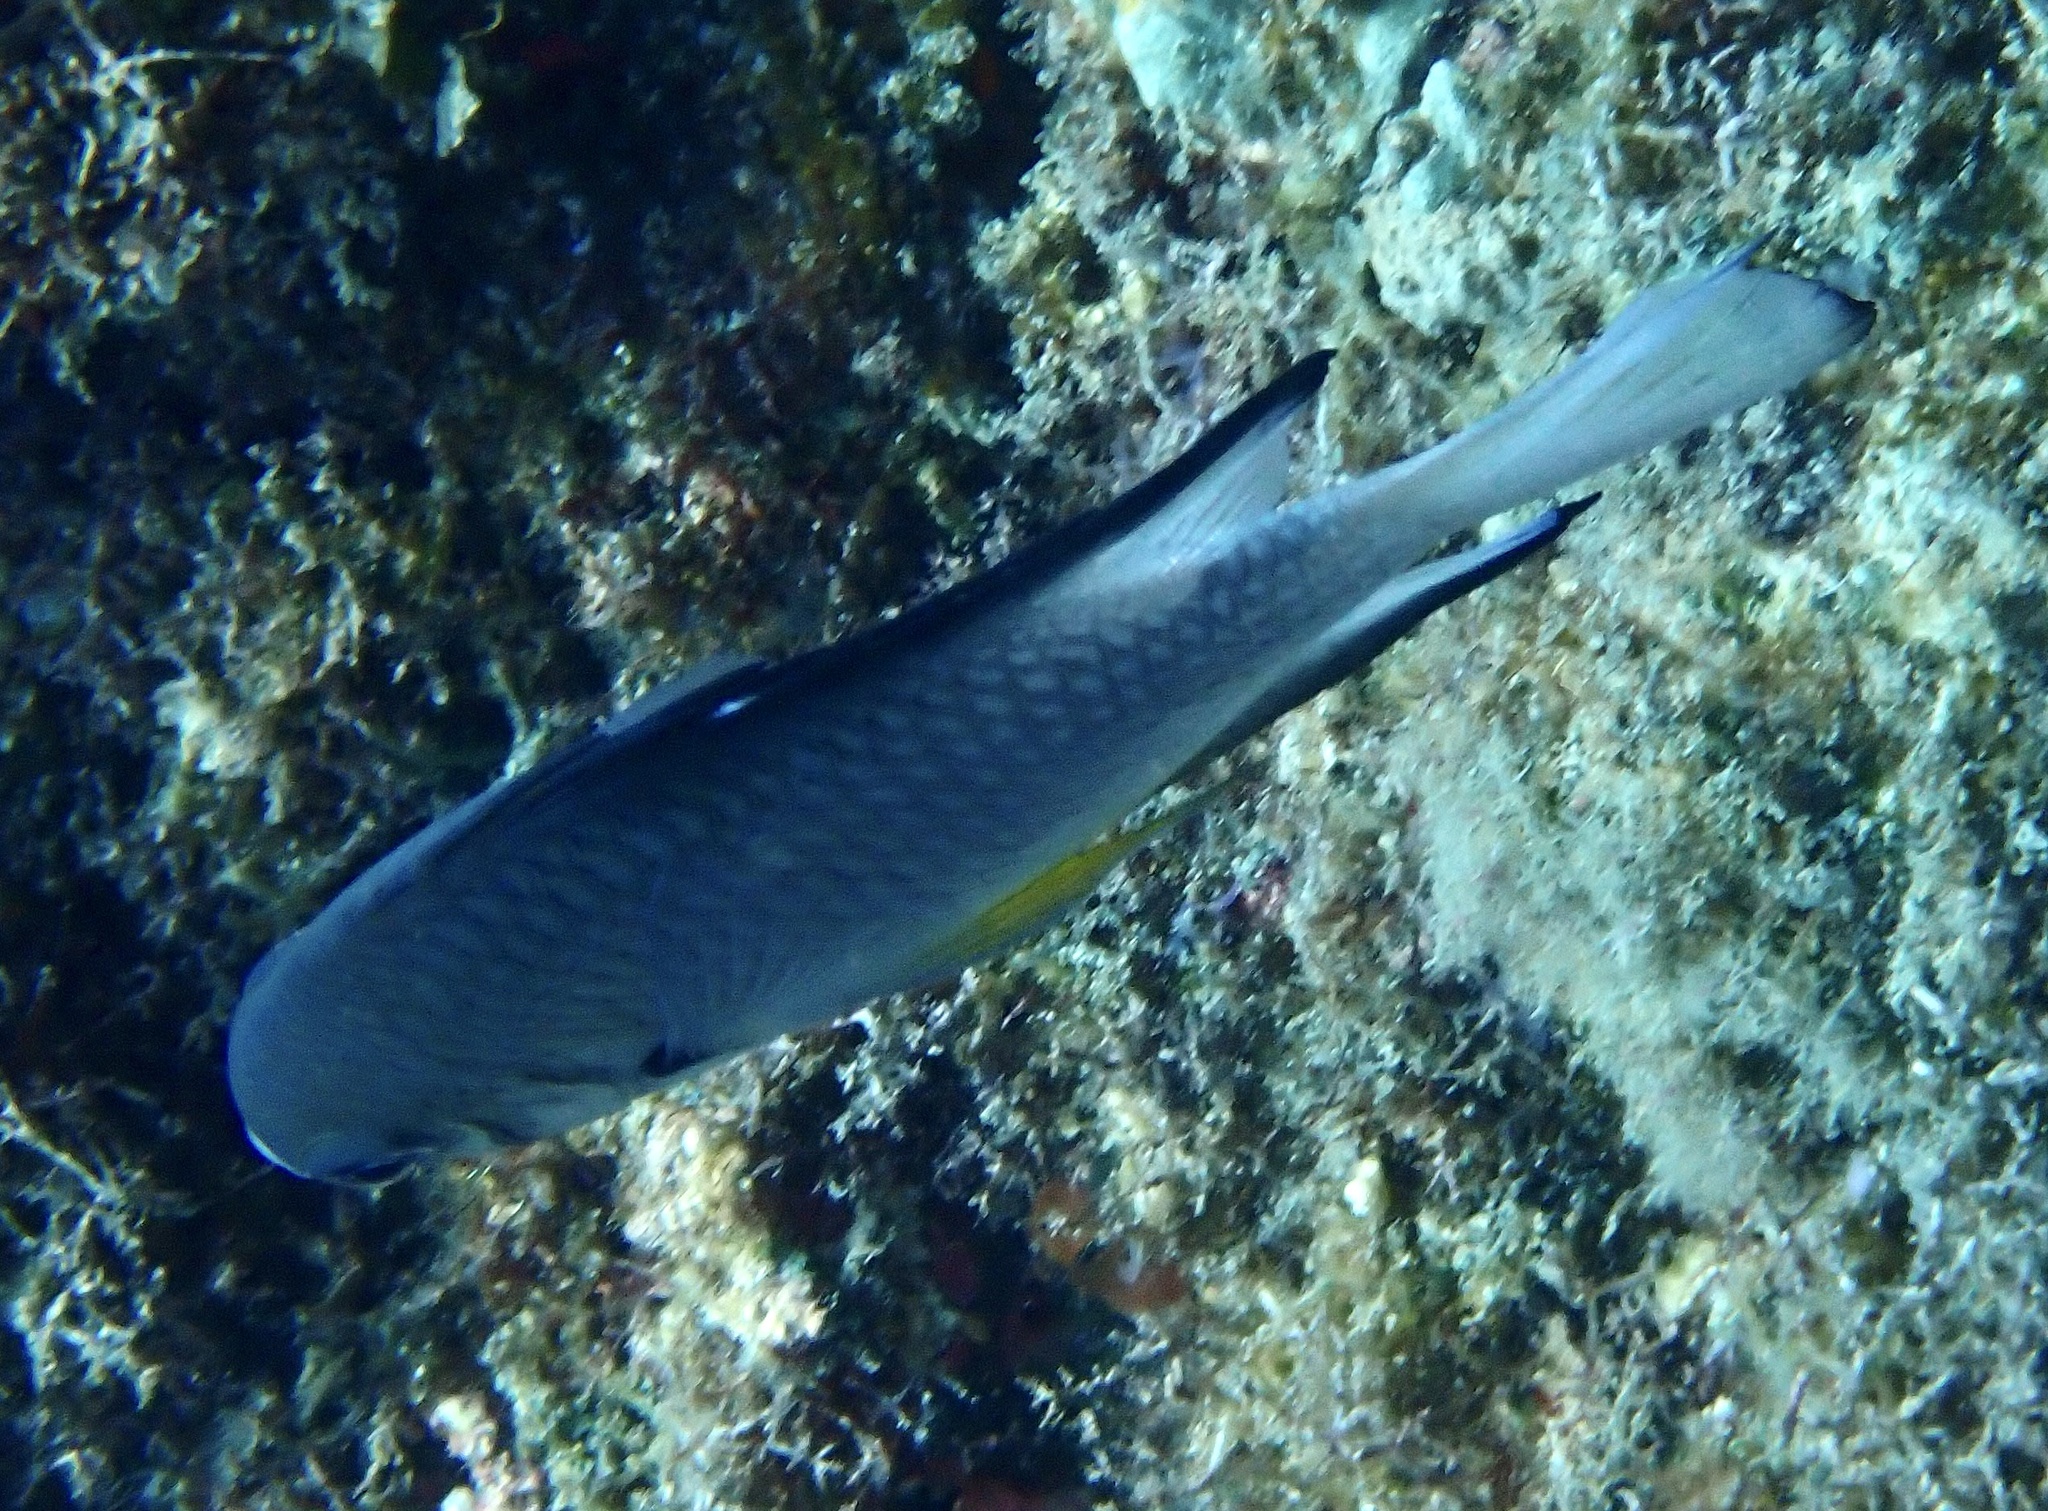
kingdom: Animalia
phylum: Chordata
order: Perciformes
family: Pomacentridae
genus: Amblyglyphidodon
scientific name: Amblyglyphidodon leucogaster
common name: White-belly damsel
